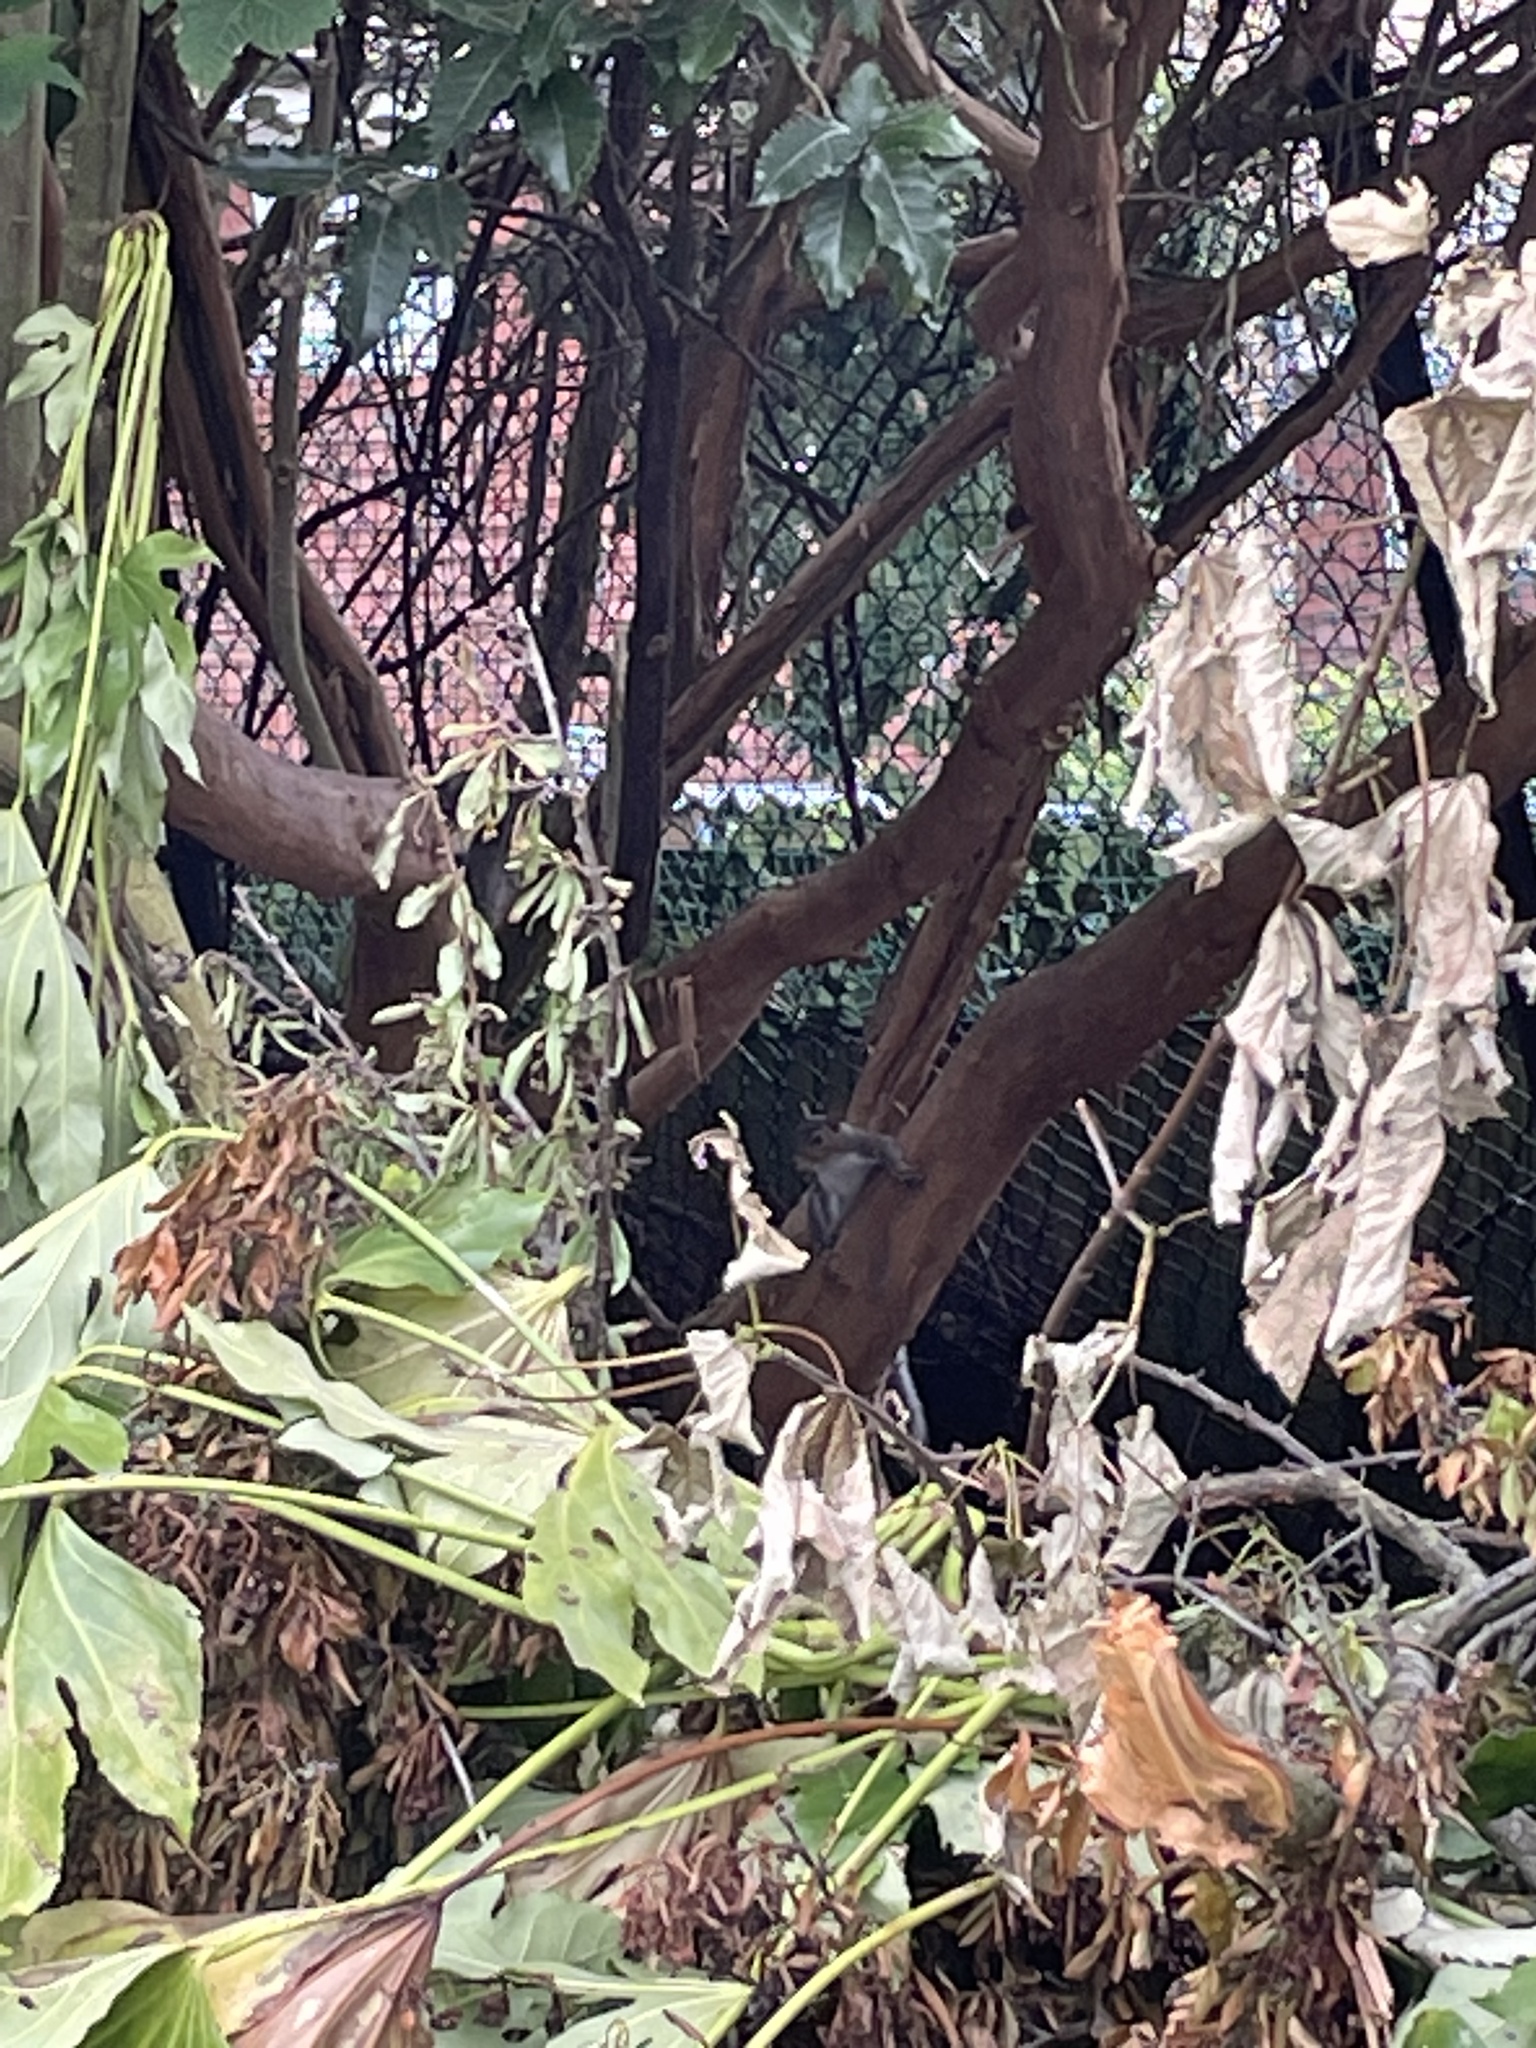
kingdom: Animalia
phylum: Chordata
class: Mammalia
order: Rodentia
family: Sciuridae
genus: Sciurus
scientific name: Sciurus carolinensis
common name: Eastern gray squirrel
